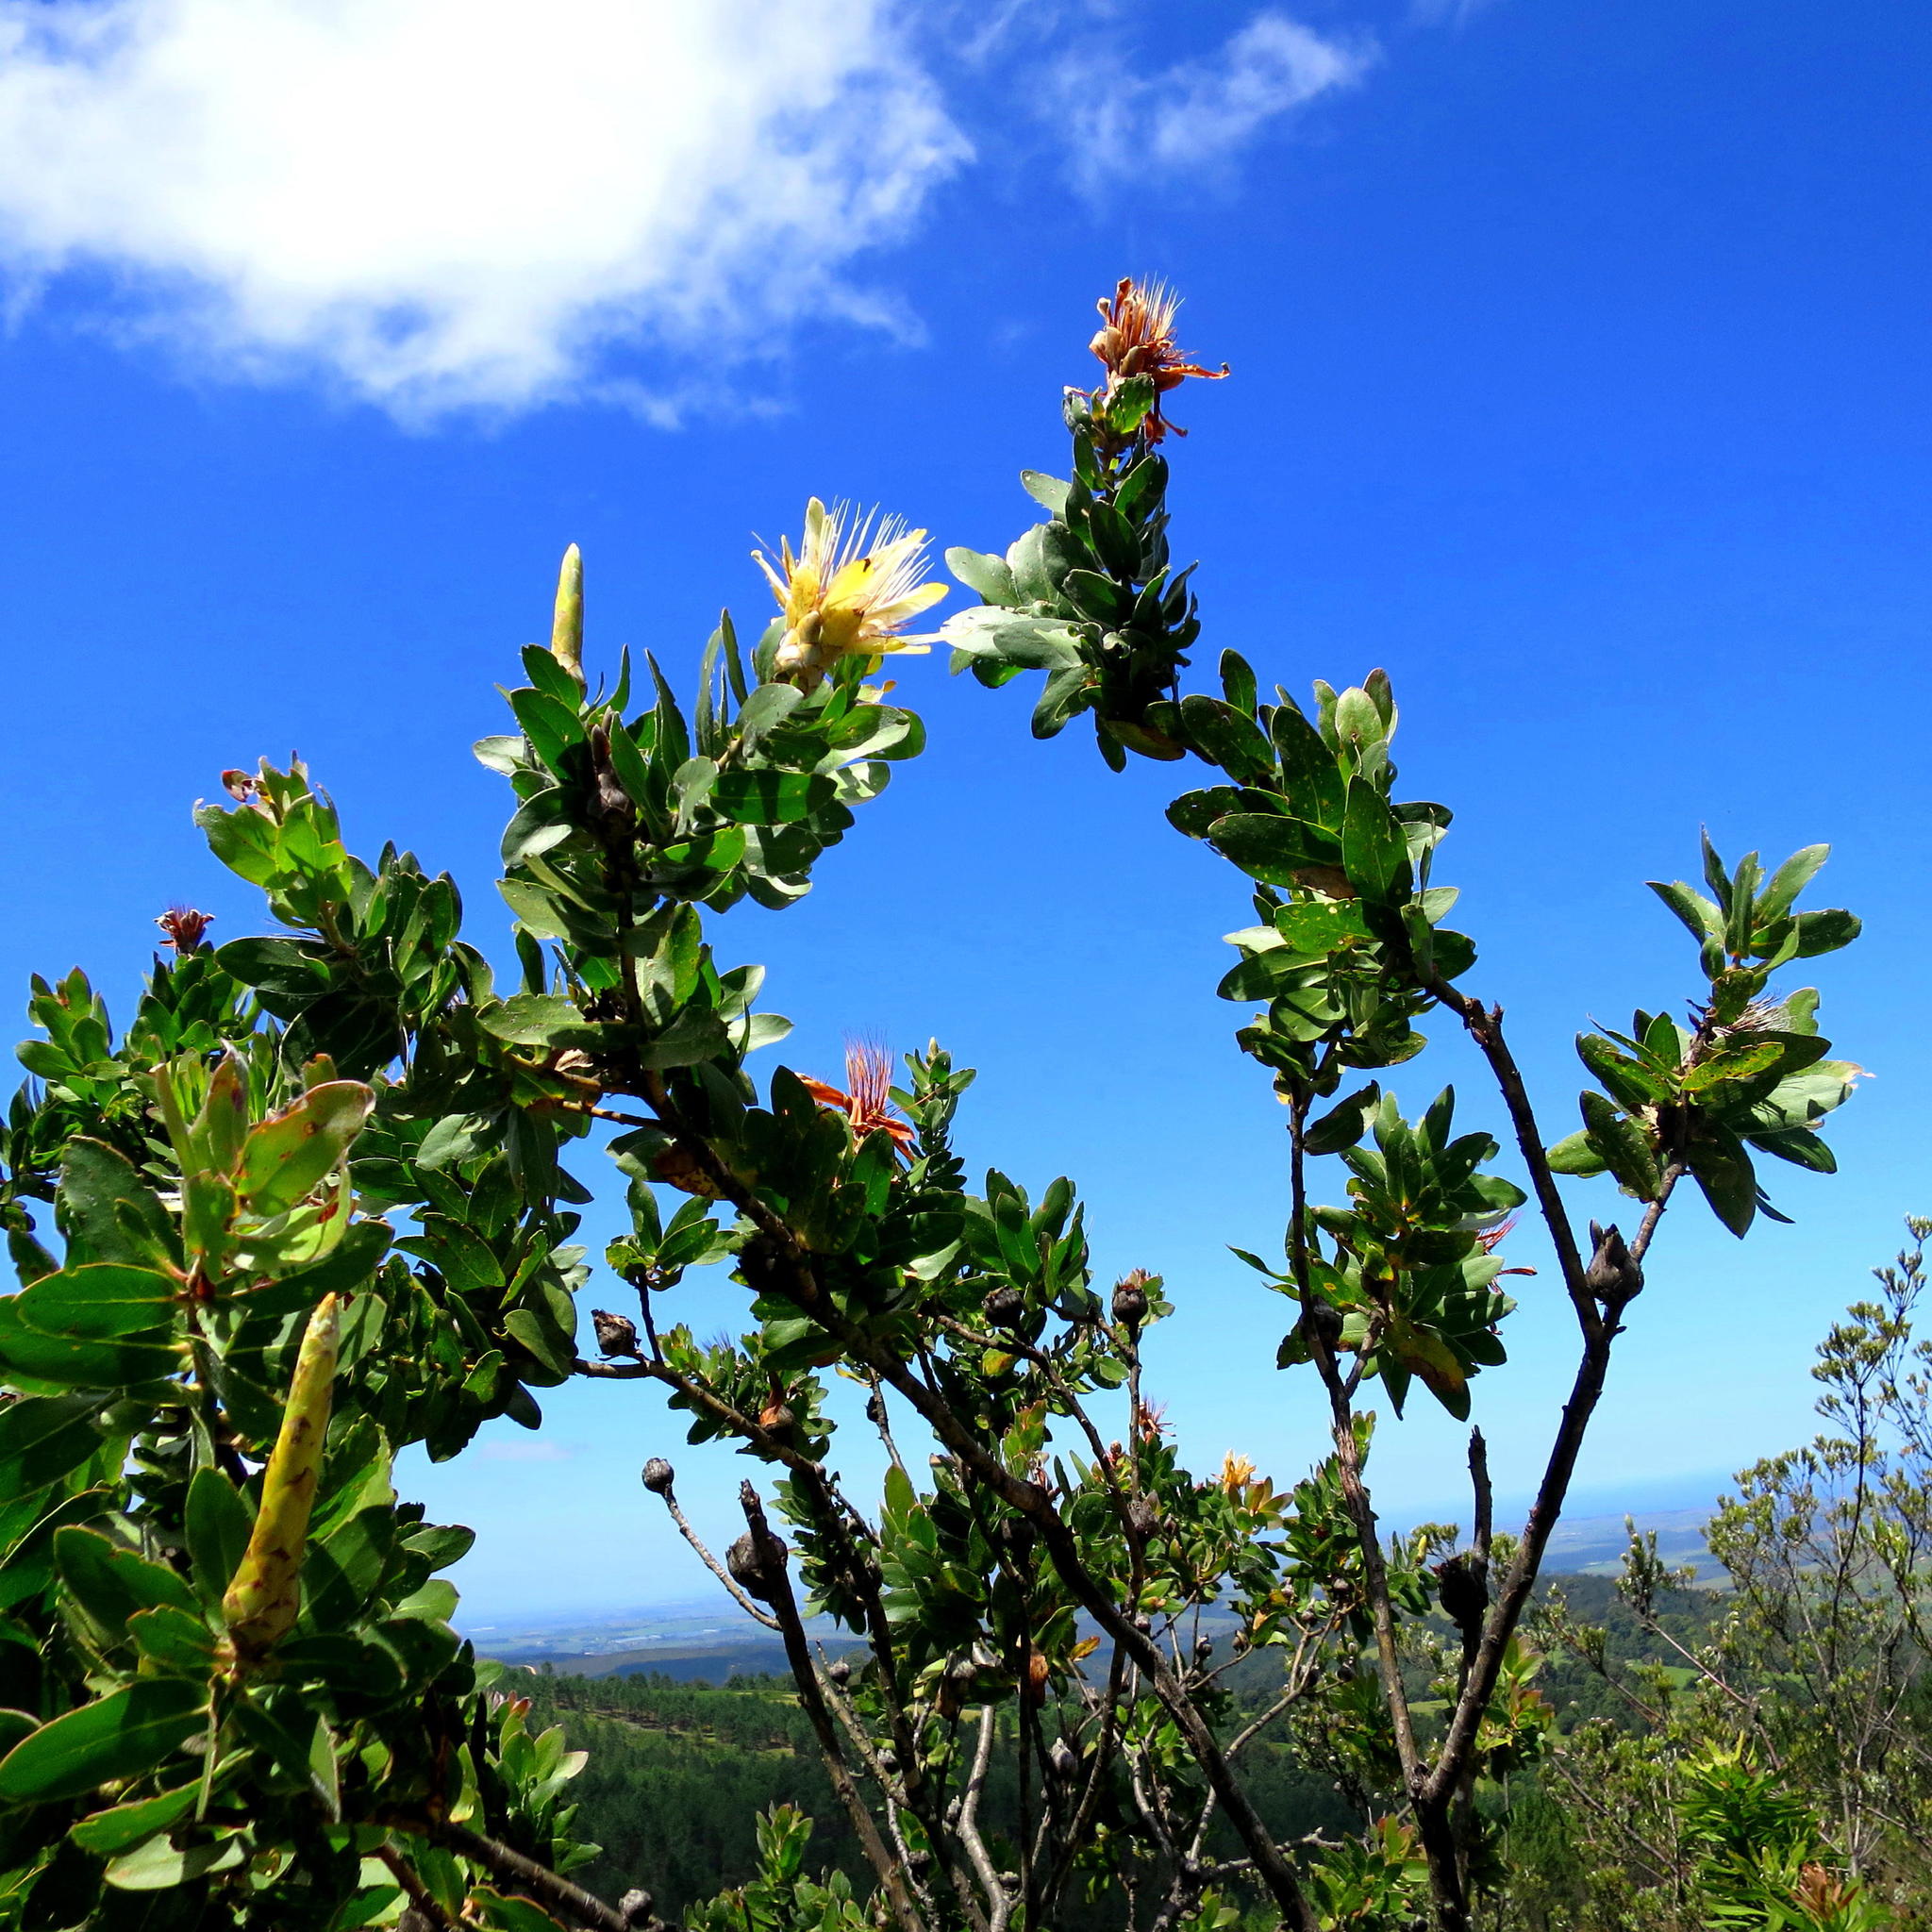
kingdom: Plantae
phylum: Tracheophyta
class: Magnoliopsida
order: Proteales
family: Proteaceae
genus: Protea
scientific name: Protea aurea
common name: Shuttlecock sugarbush
